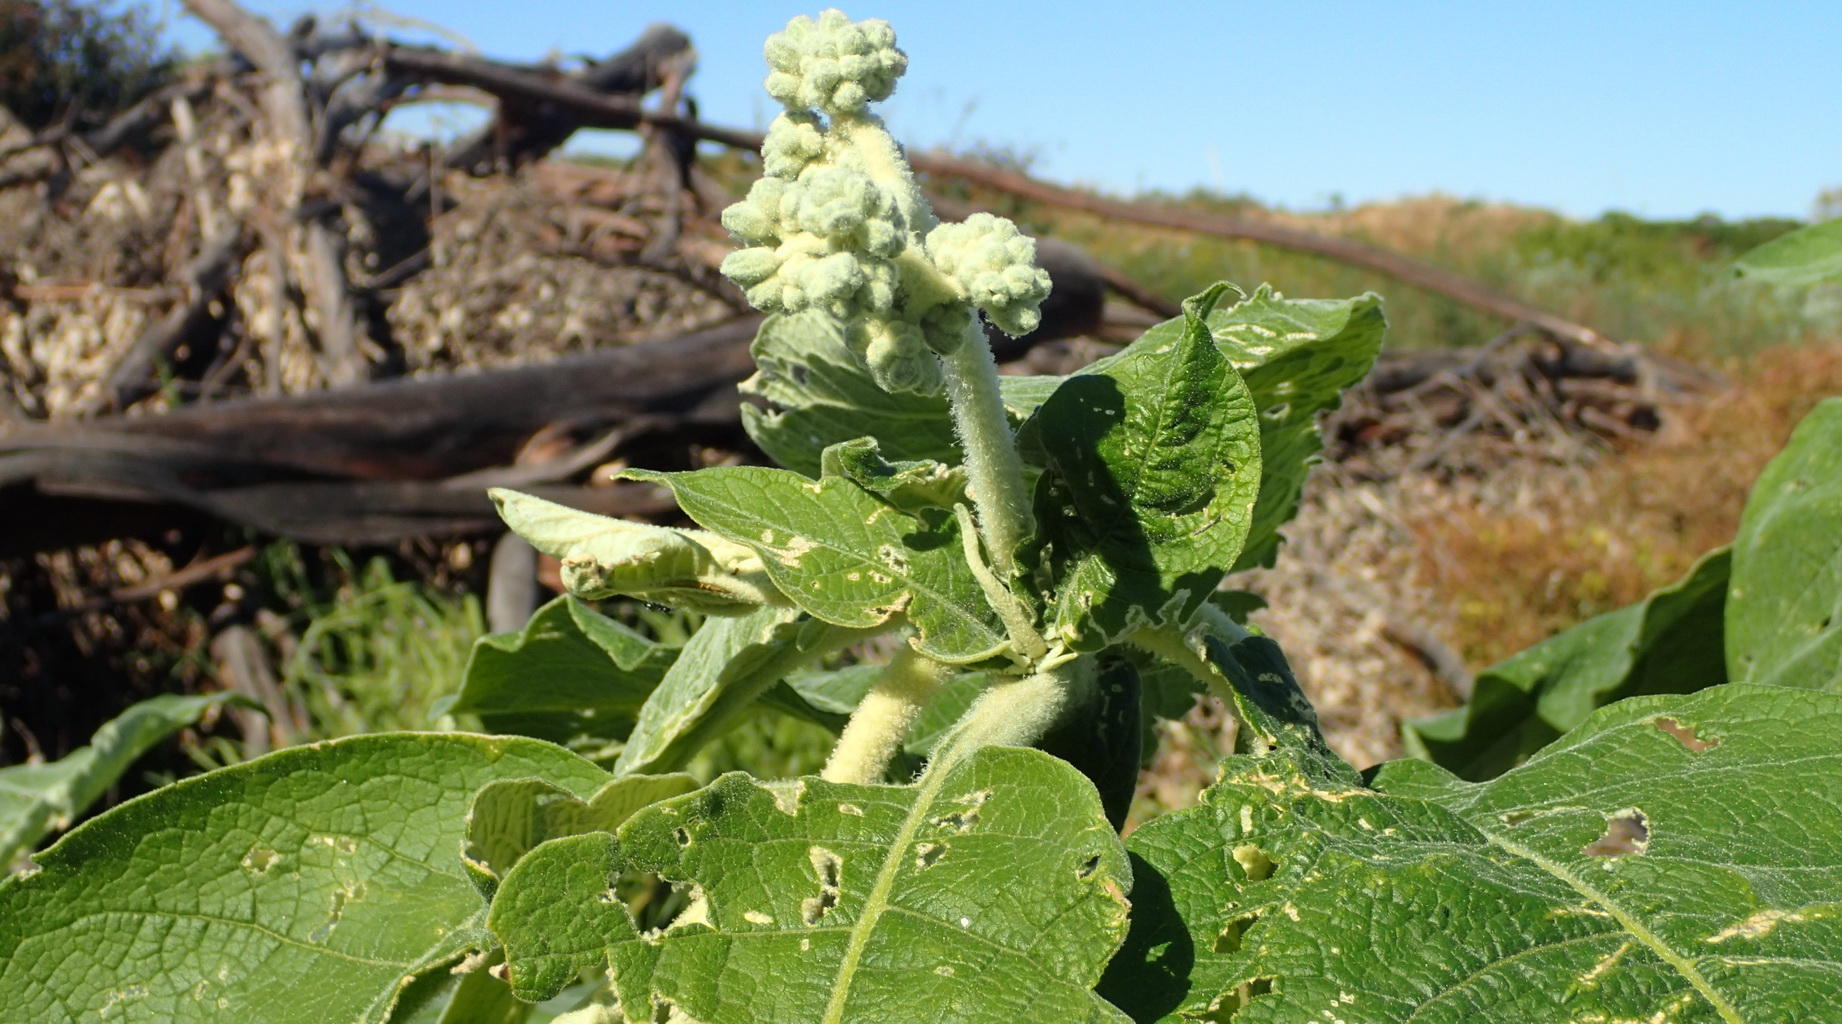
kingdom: Plantae
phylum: Tracheophyta
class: Magnoliopsida
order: Solanales
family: Solanaceae
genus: Solanum
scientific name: Solanum mauritianum
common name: Earleaf nightshade
